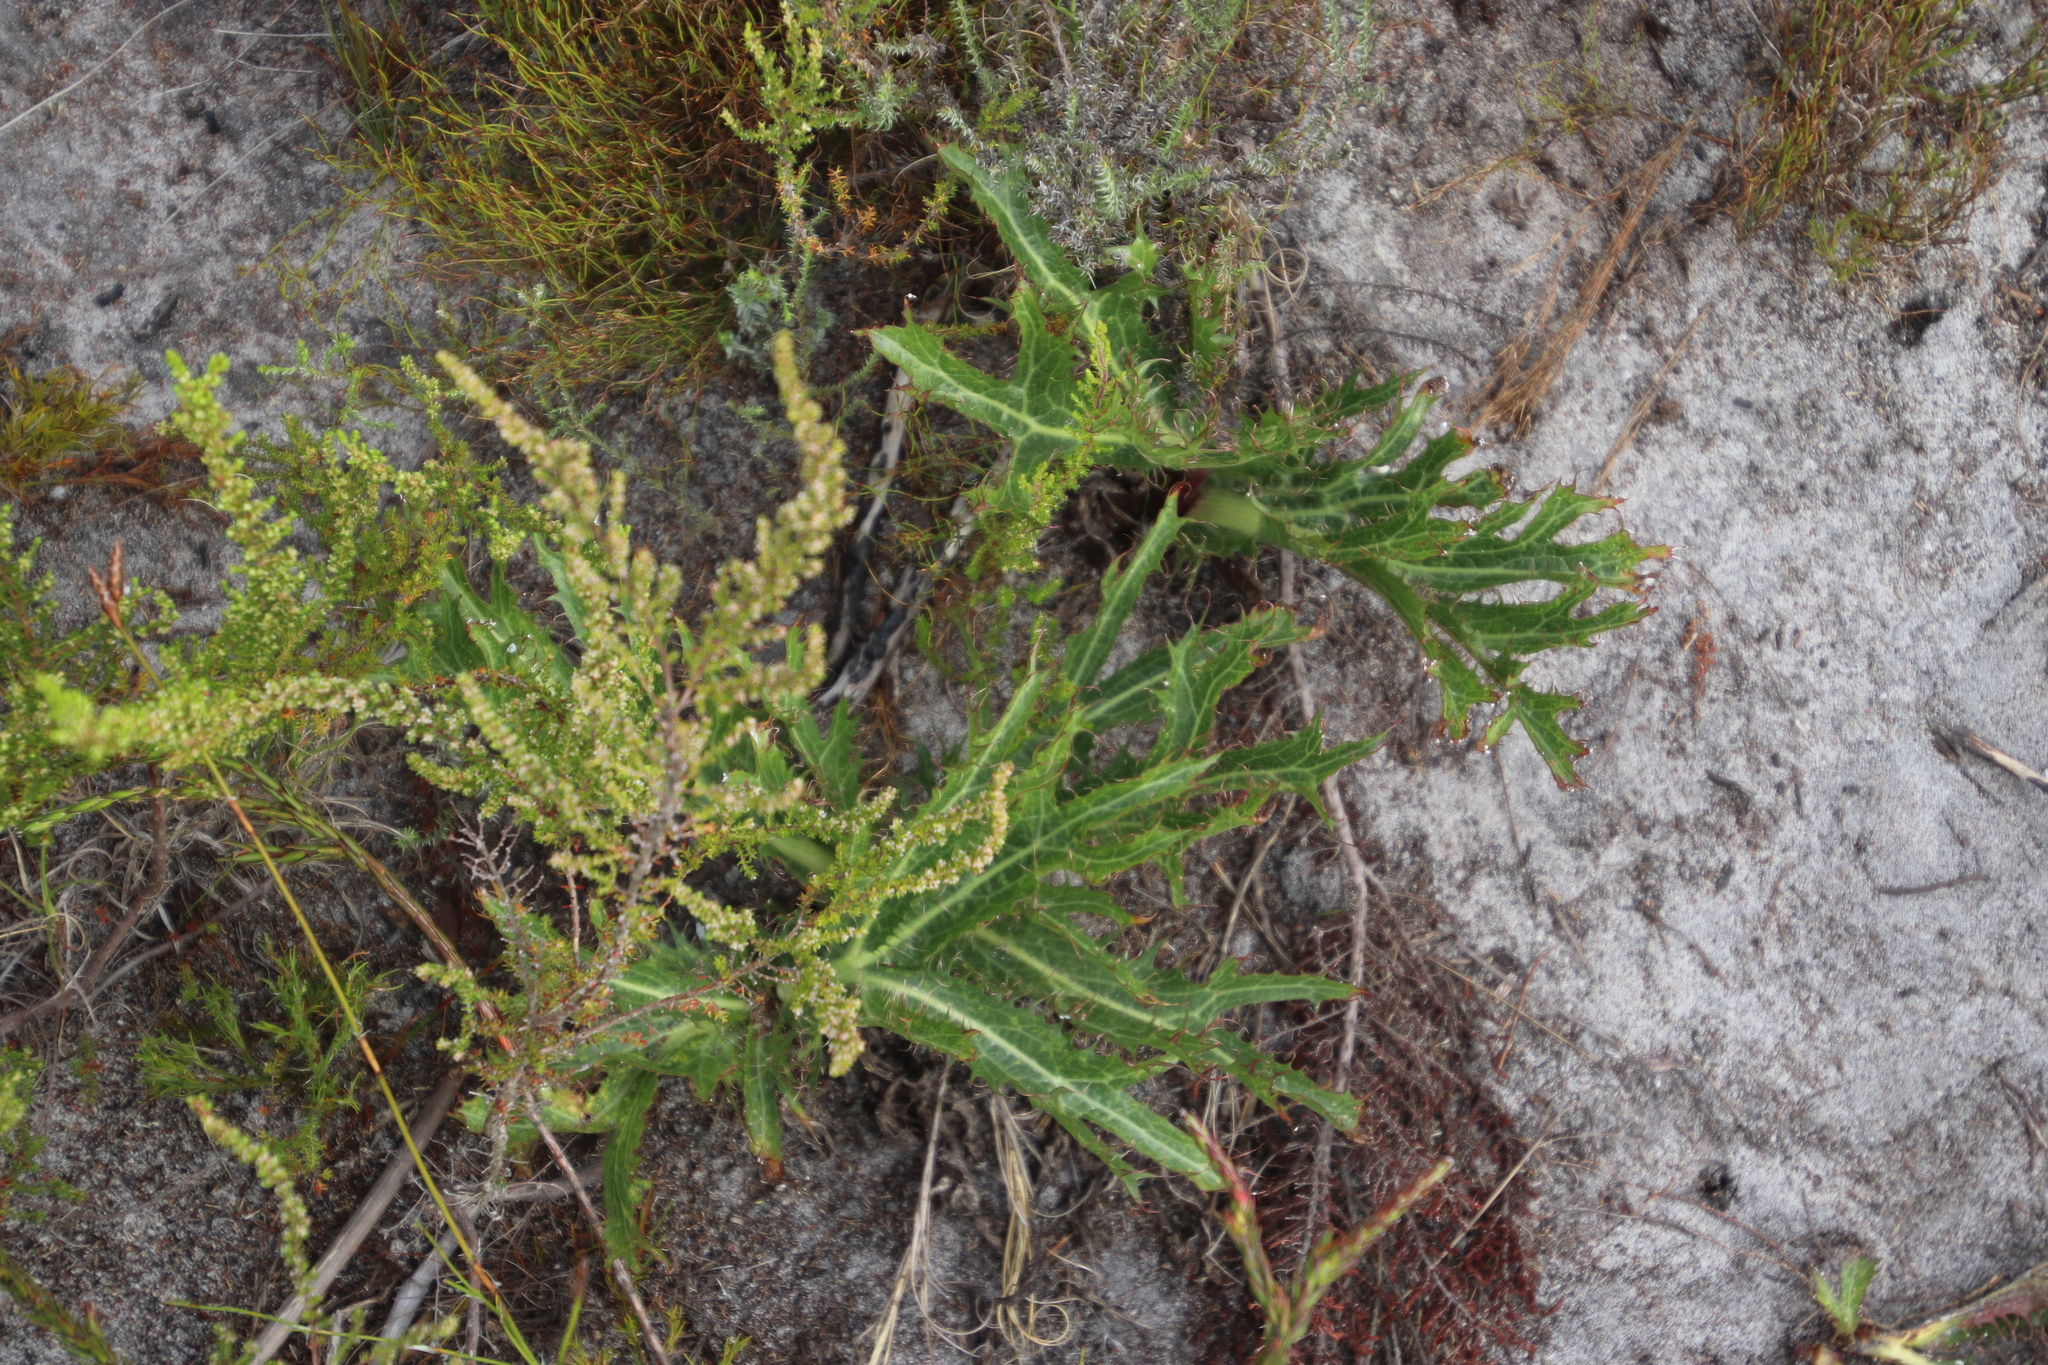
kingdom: Plantae
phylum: Tracheophyta
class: Magnoliopsida
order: Apiales
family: Apiaceae
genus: Lichtensteinia
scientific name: Lichtensteinia lacera
